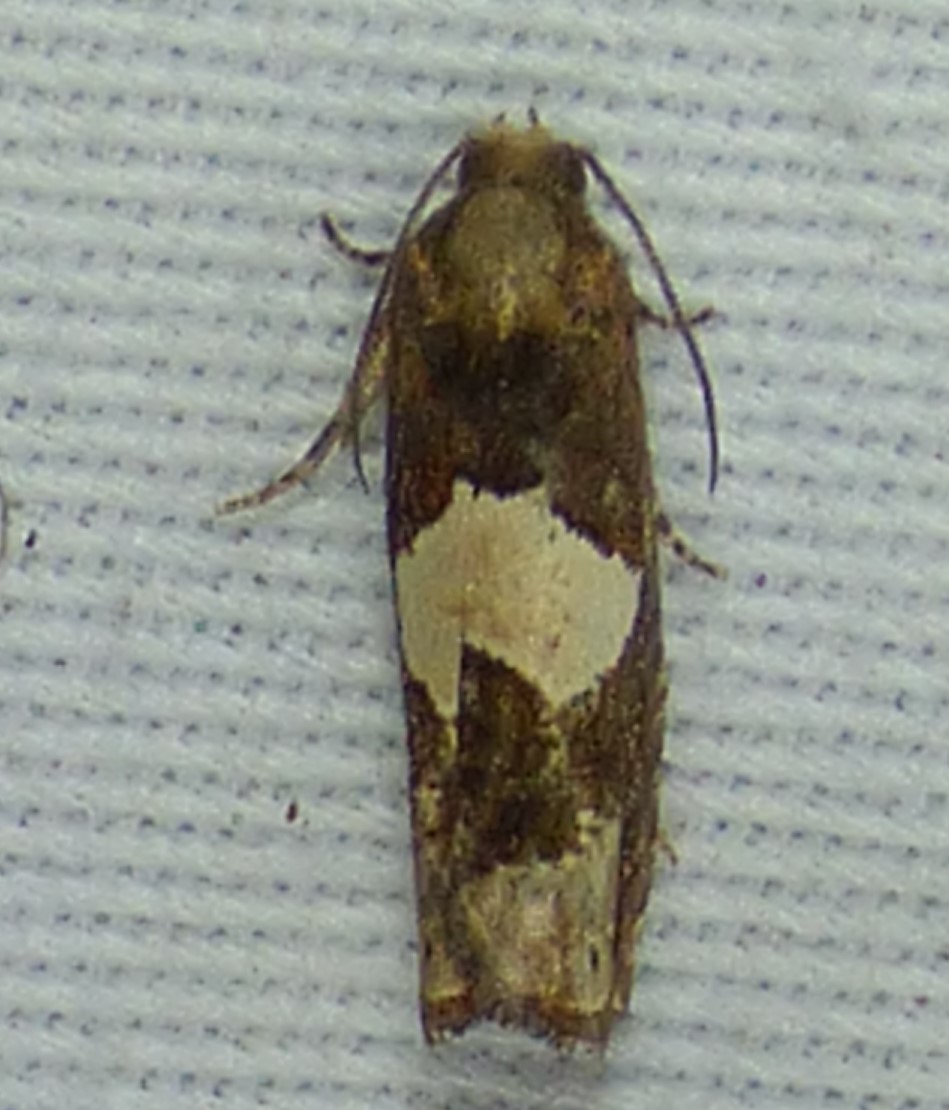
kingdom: Animalia
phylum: Arthropoda
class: Insecta
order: Lepidoptera
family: Tortricidae
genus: Epiblema
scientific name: Epiblema otiosana
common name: Bidens borer moth
